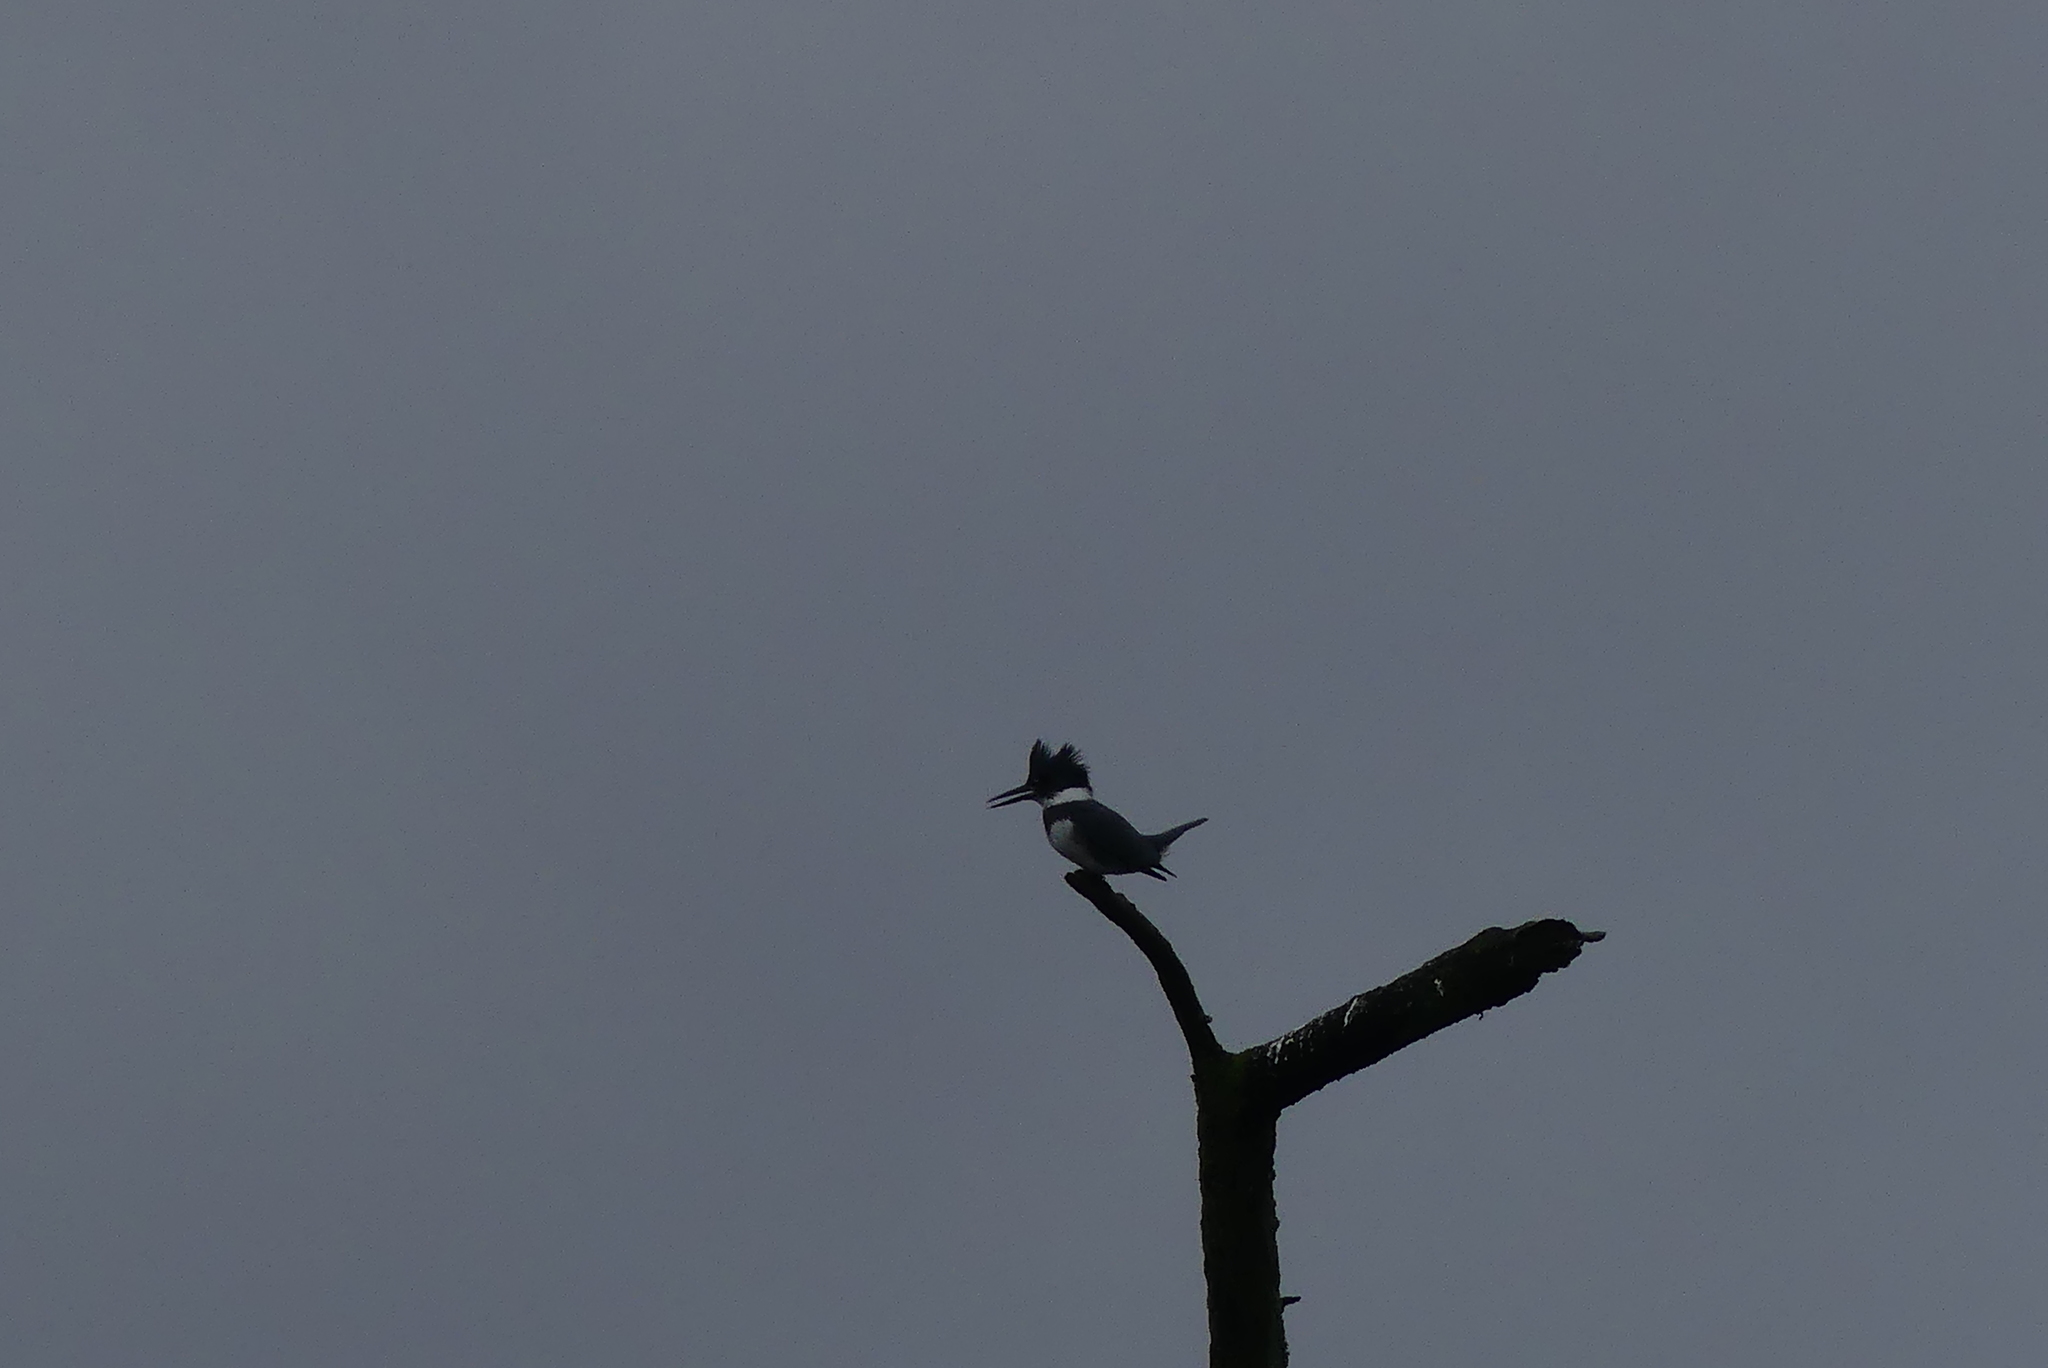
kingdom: Animalia
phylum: Chordata
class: Aves
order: Coraciiformes
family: Alcedinidae
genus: Megaceryle
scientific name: Megaceryle alcyon
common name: Belted kingfisher
